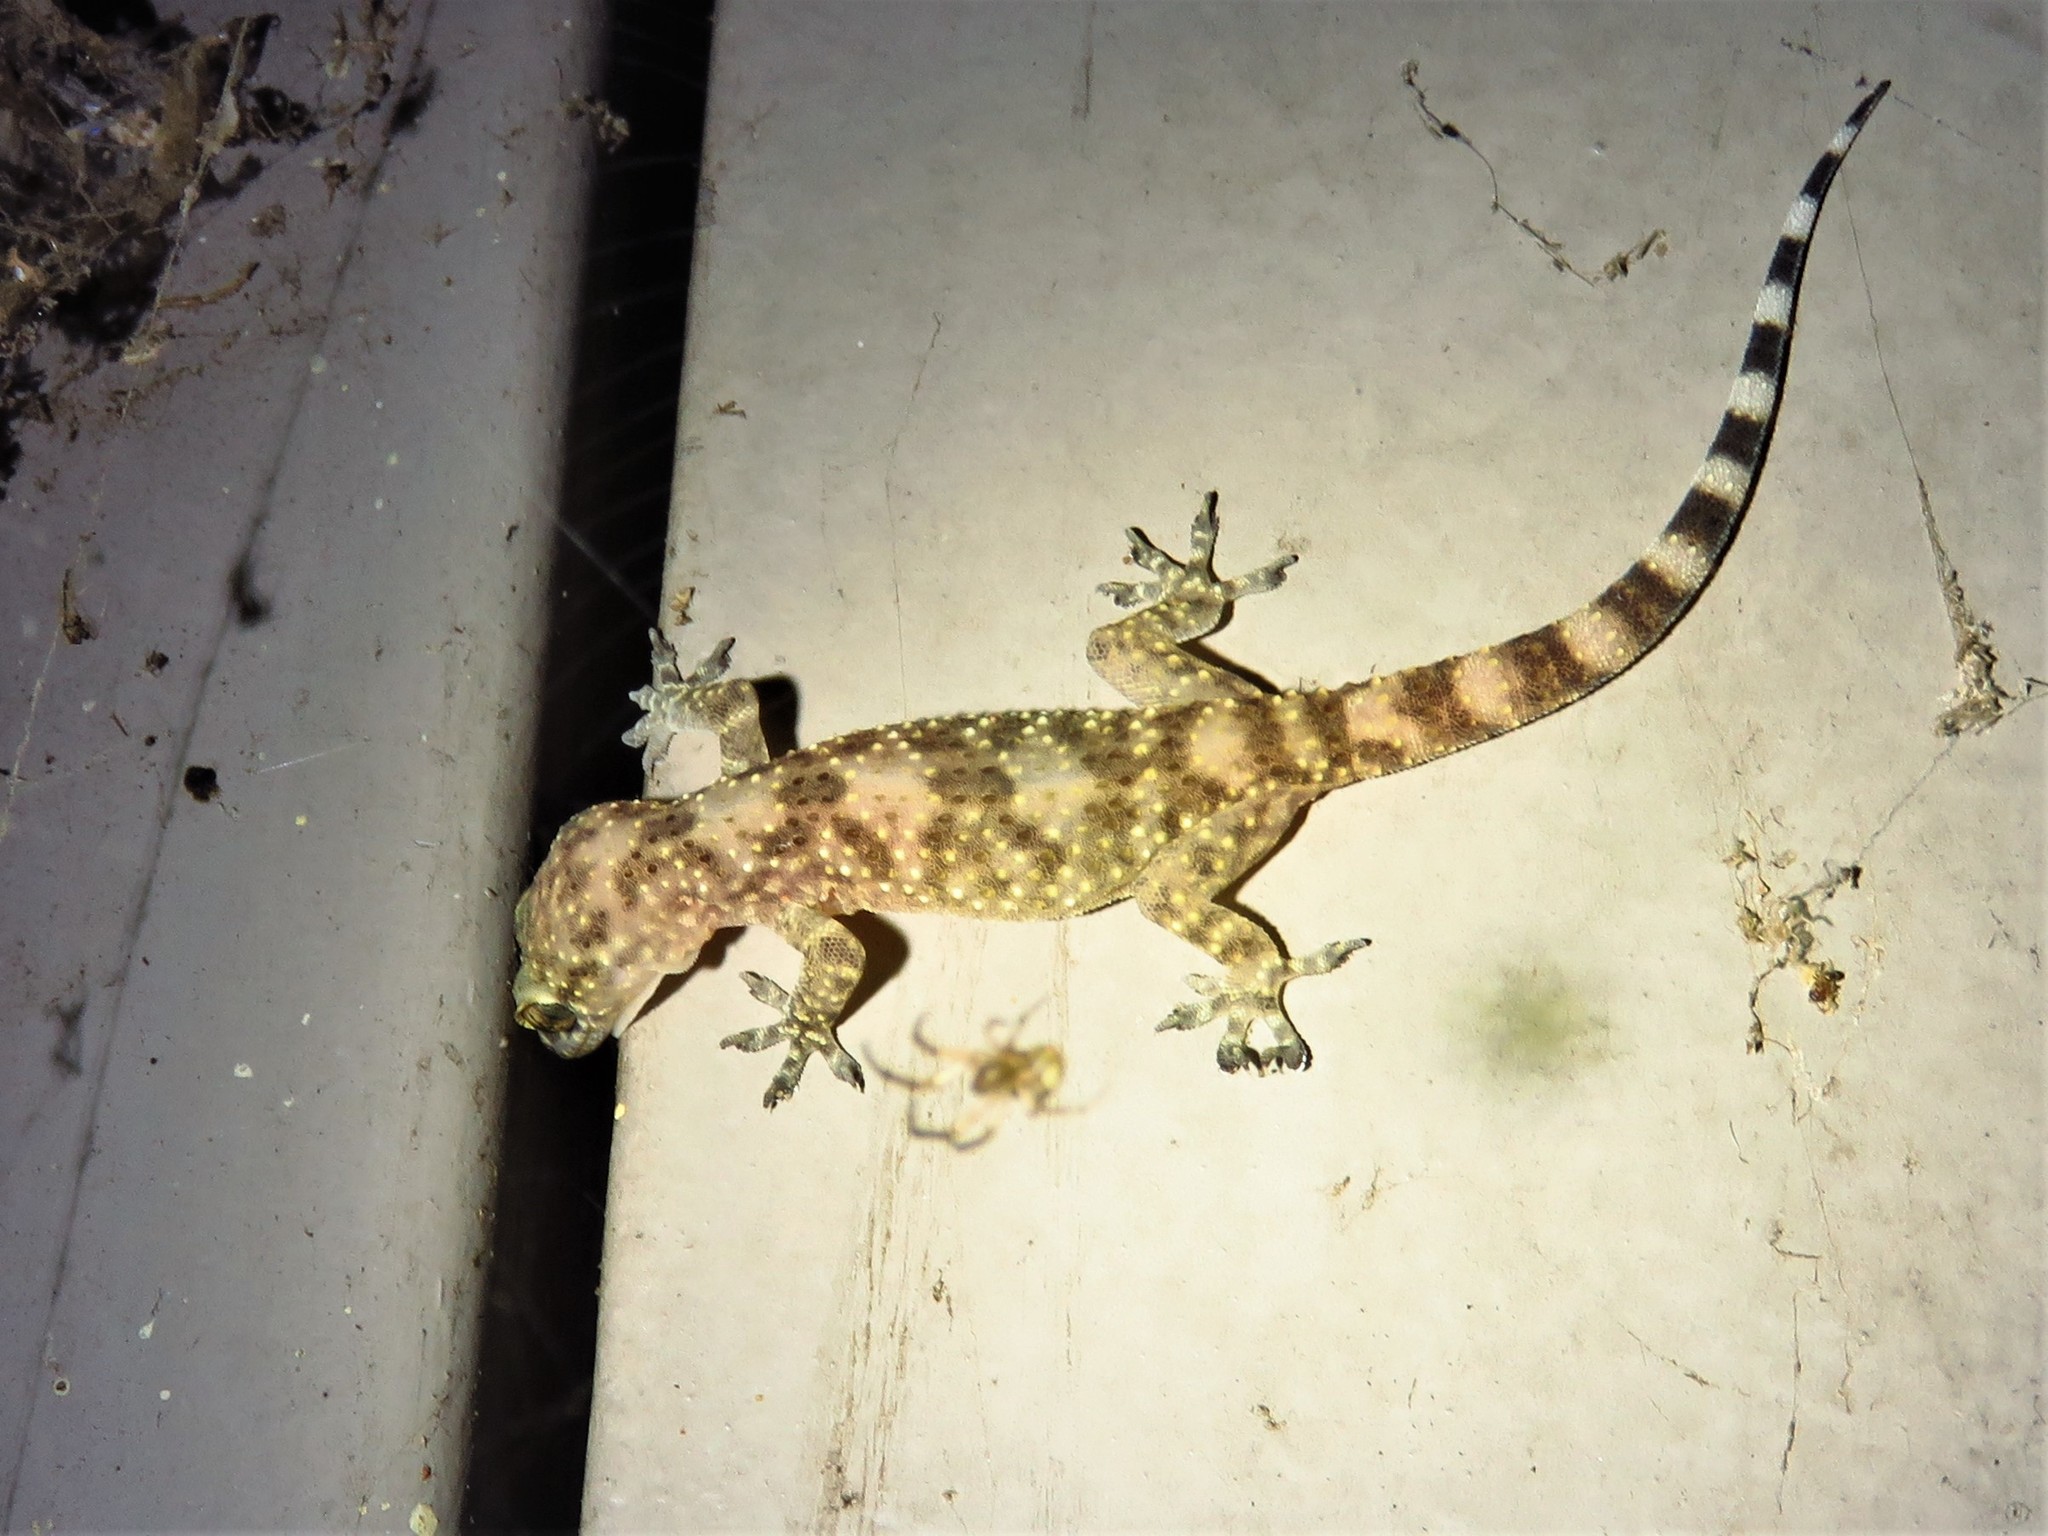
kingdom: Animalia
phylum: Chordata
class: Squamata
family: Gekkonidae
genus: Hemidactylus
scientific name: Hemidactylus turcicus
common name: Turkish gecko
